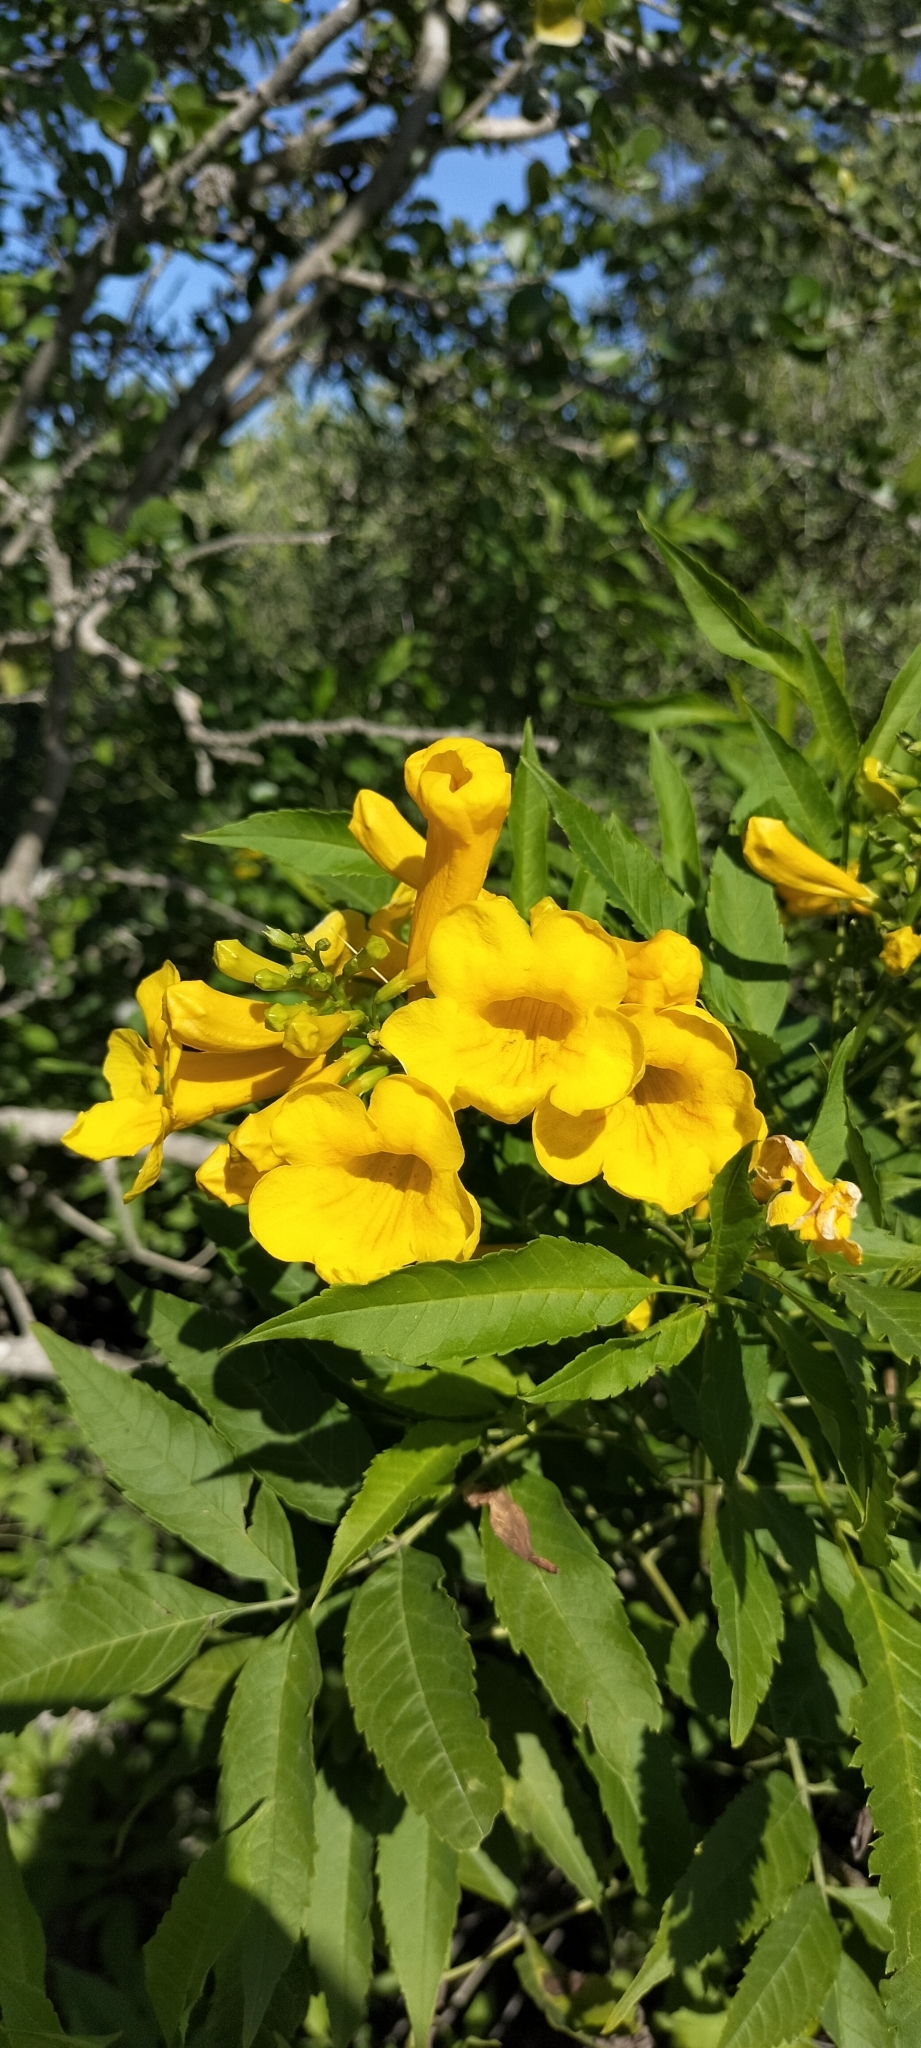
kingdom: Plantae
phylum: Tracheophyta
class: Magnoliopsida
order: Lamiales
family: Bignoniaceae
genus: Tecoma
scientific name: Tecoma stans
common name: Yellow trumpetbush
